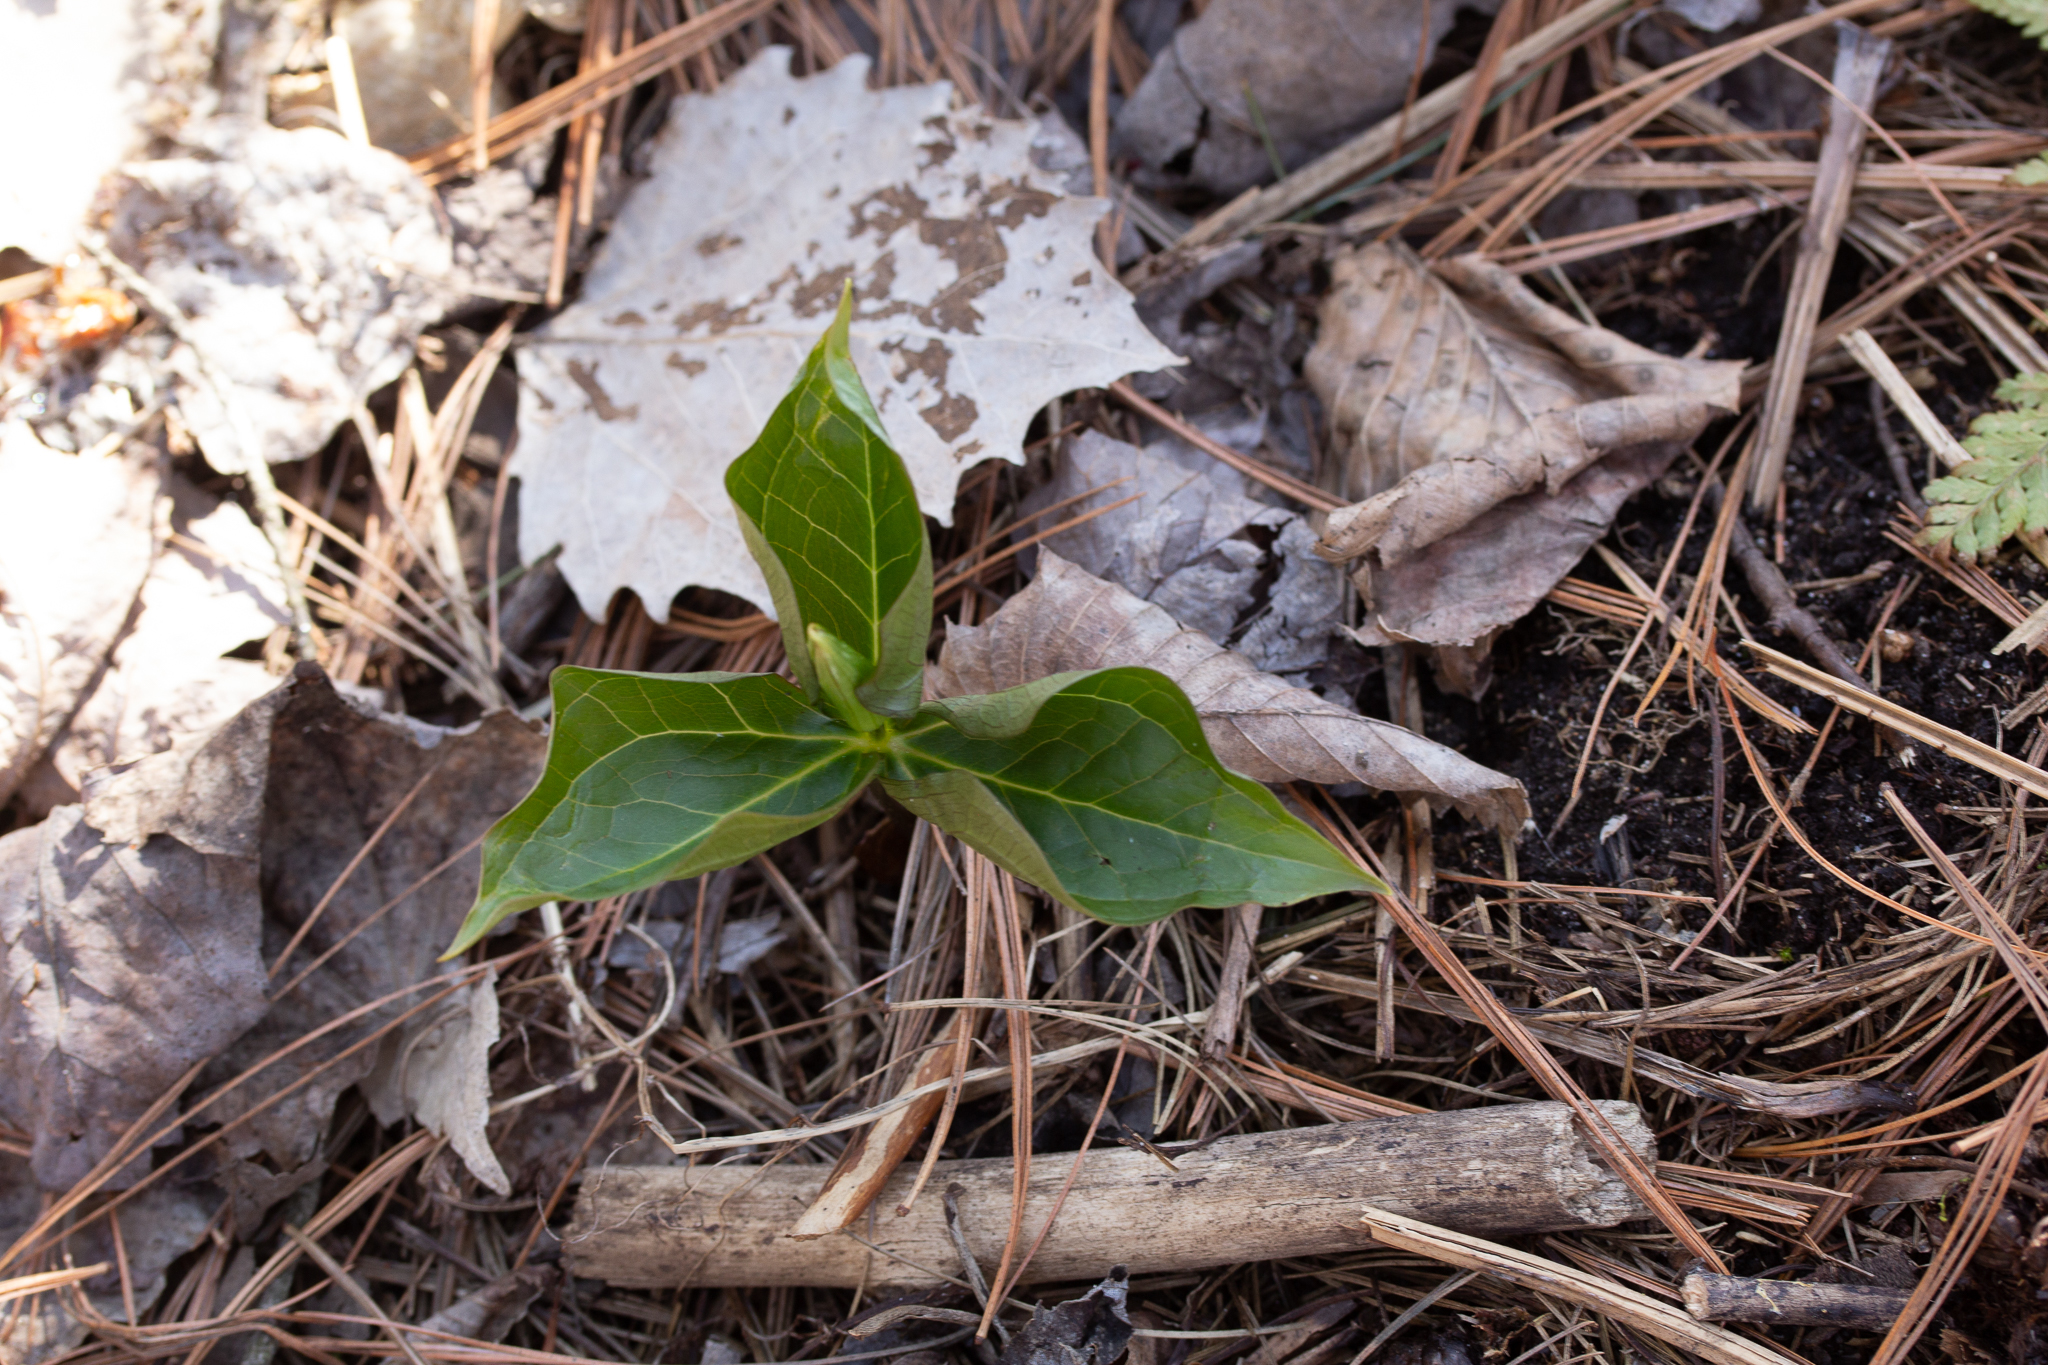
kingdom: Plantae
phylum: Tracheophyta
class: Liliopsida
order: Liliales
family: Melanthiaceae
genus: Trillium
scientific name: Trillium grandiflorum
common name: Great white trillium
